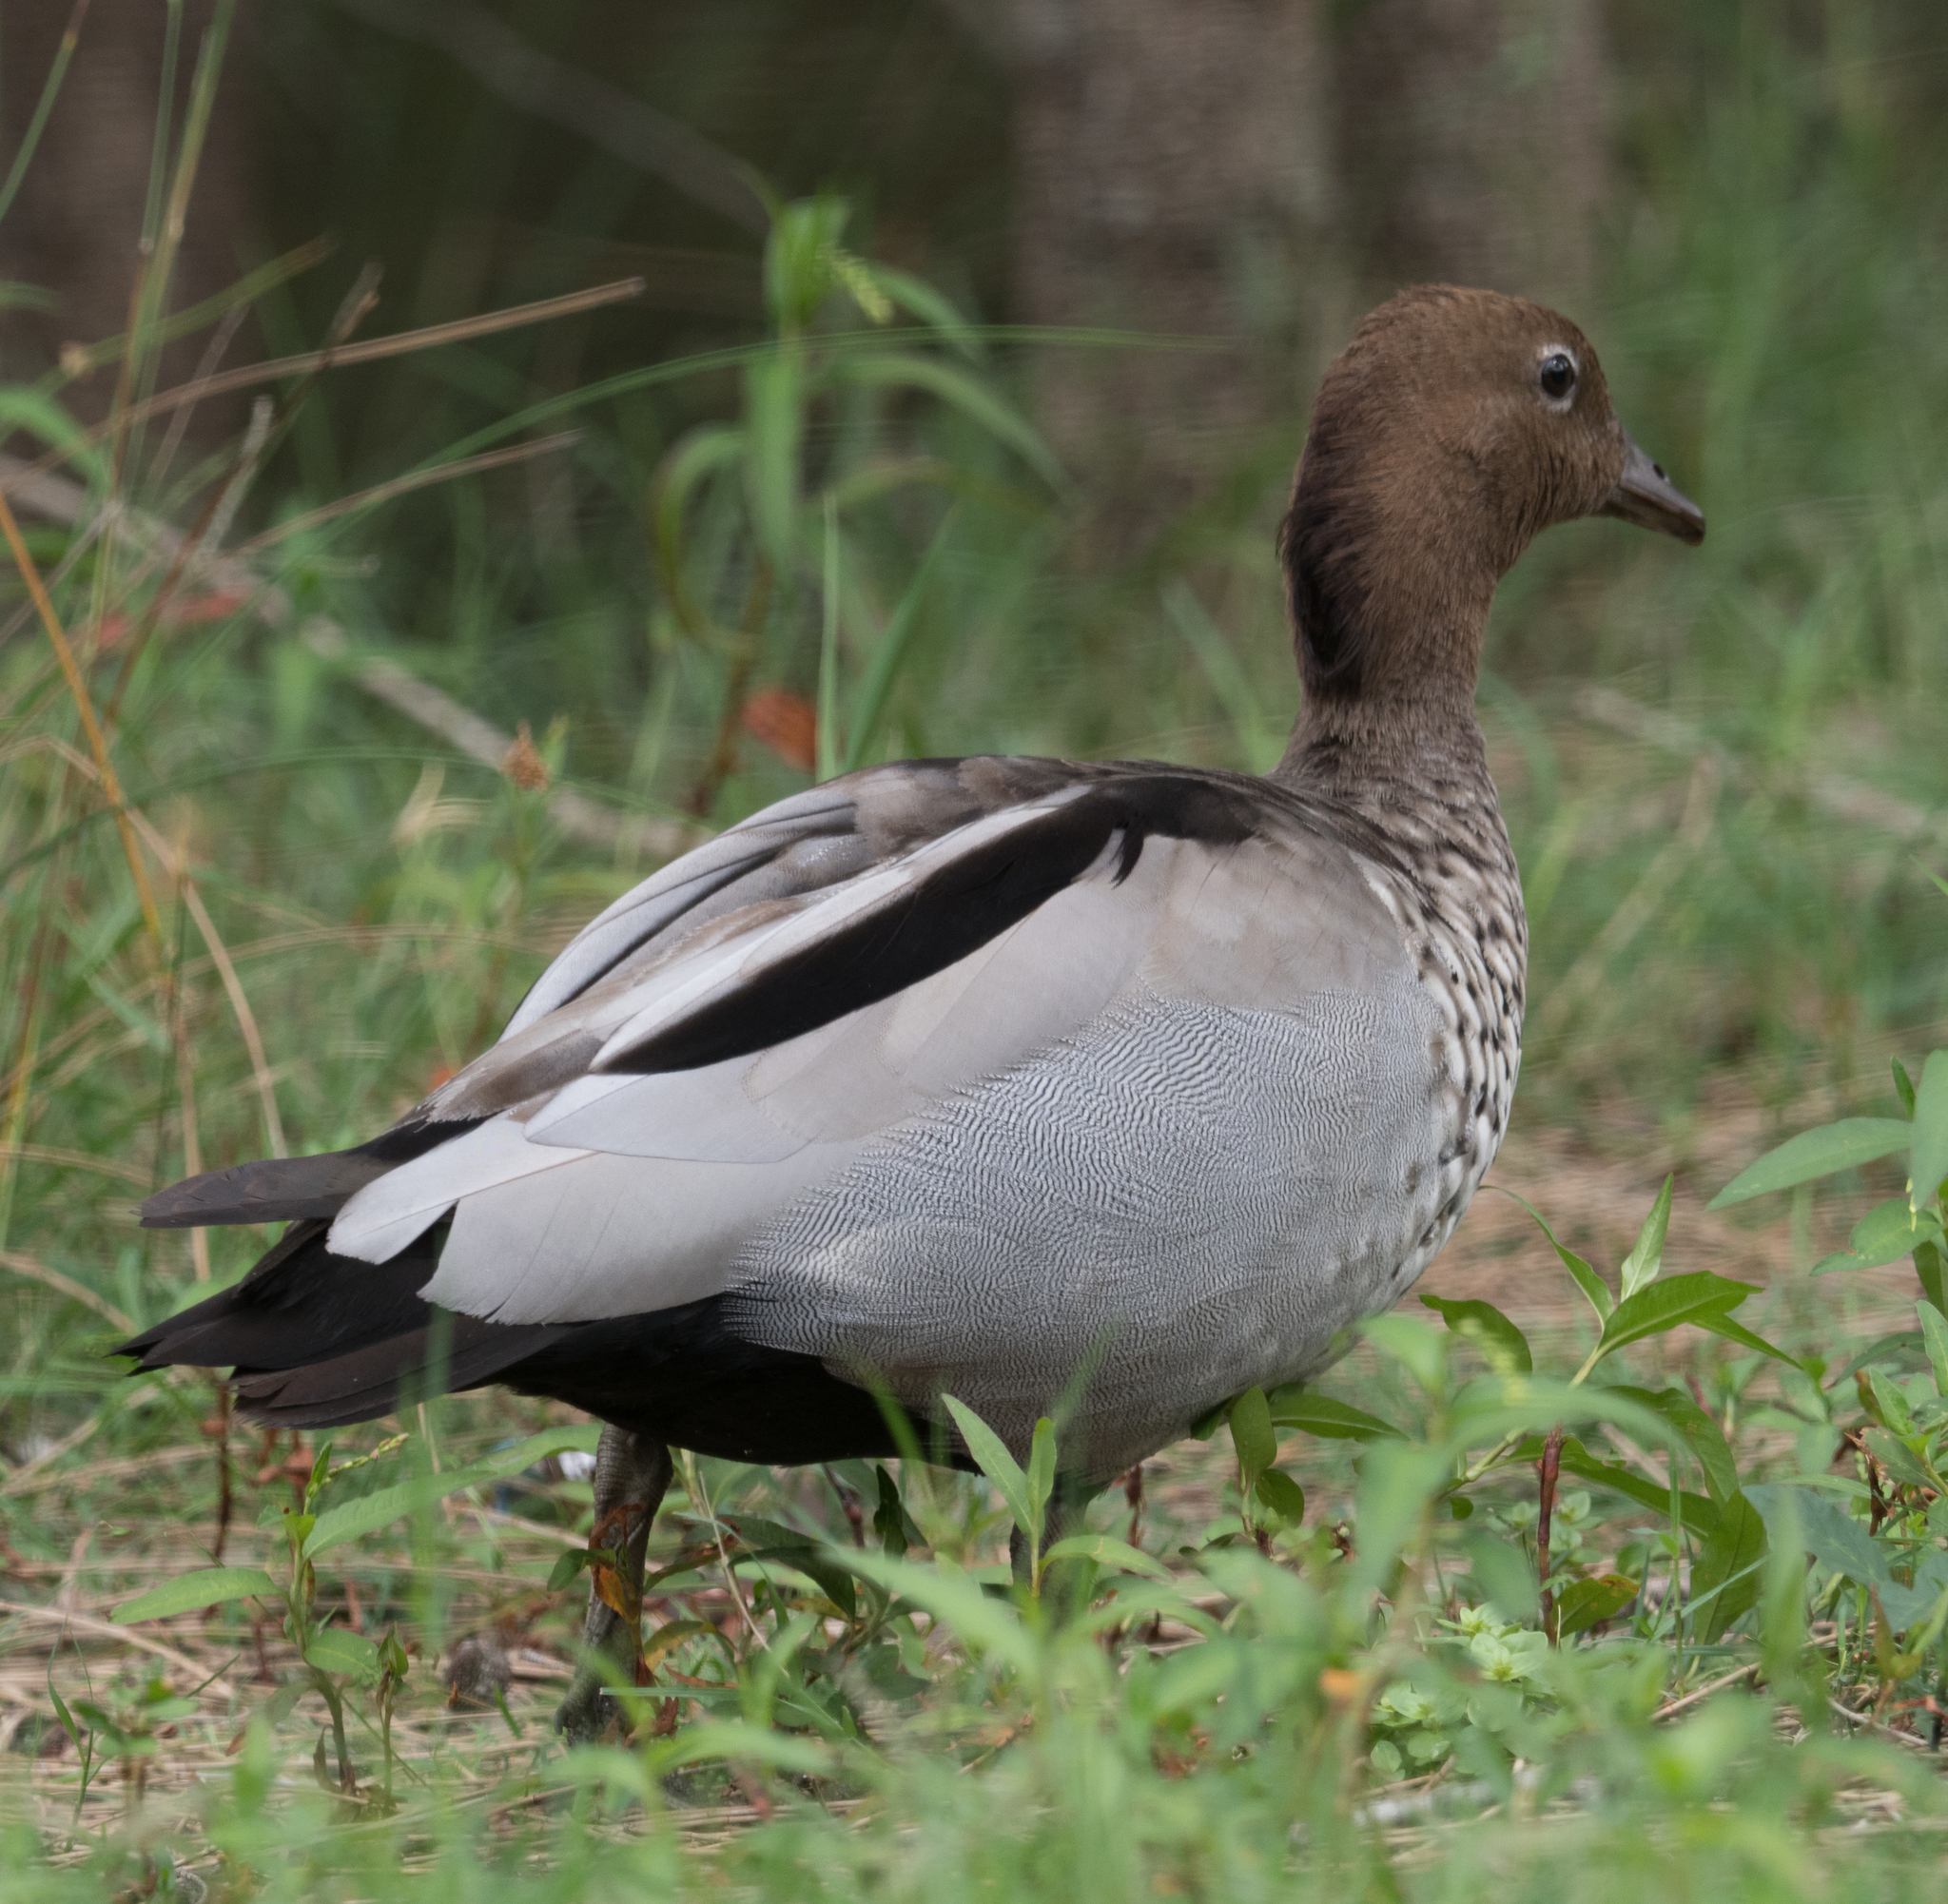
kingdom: Animalia
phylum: Chordata
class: Aves
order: Anseriformes
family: Anatidae
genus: Chenonetta
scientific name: Chenonetta jubata
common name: Maned duck
